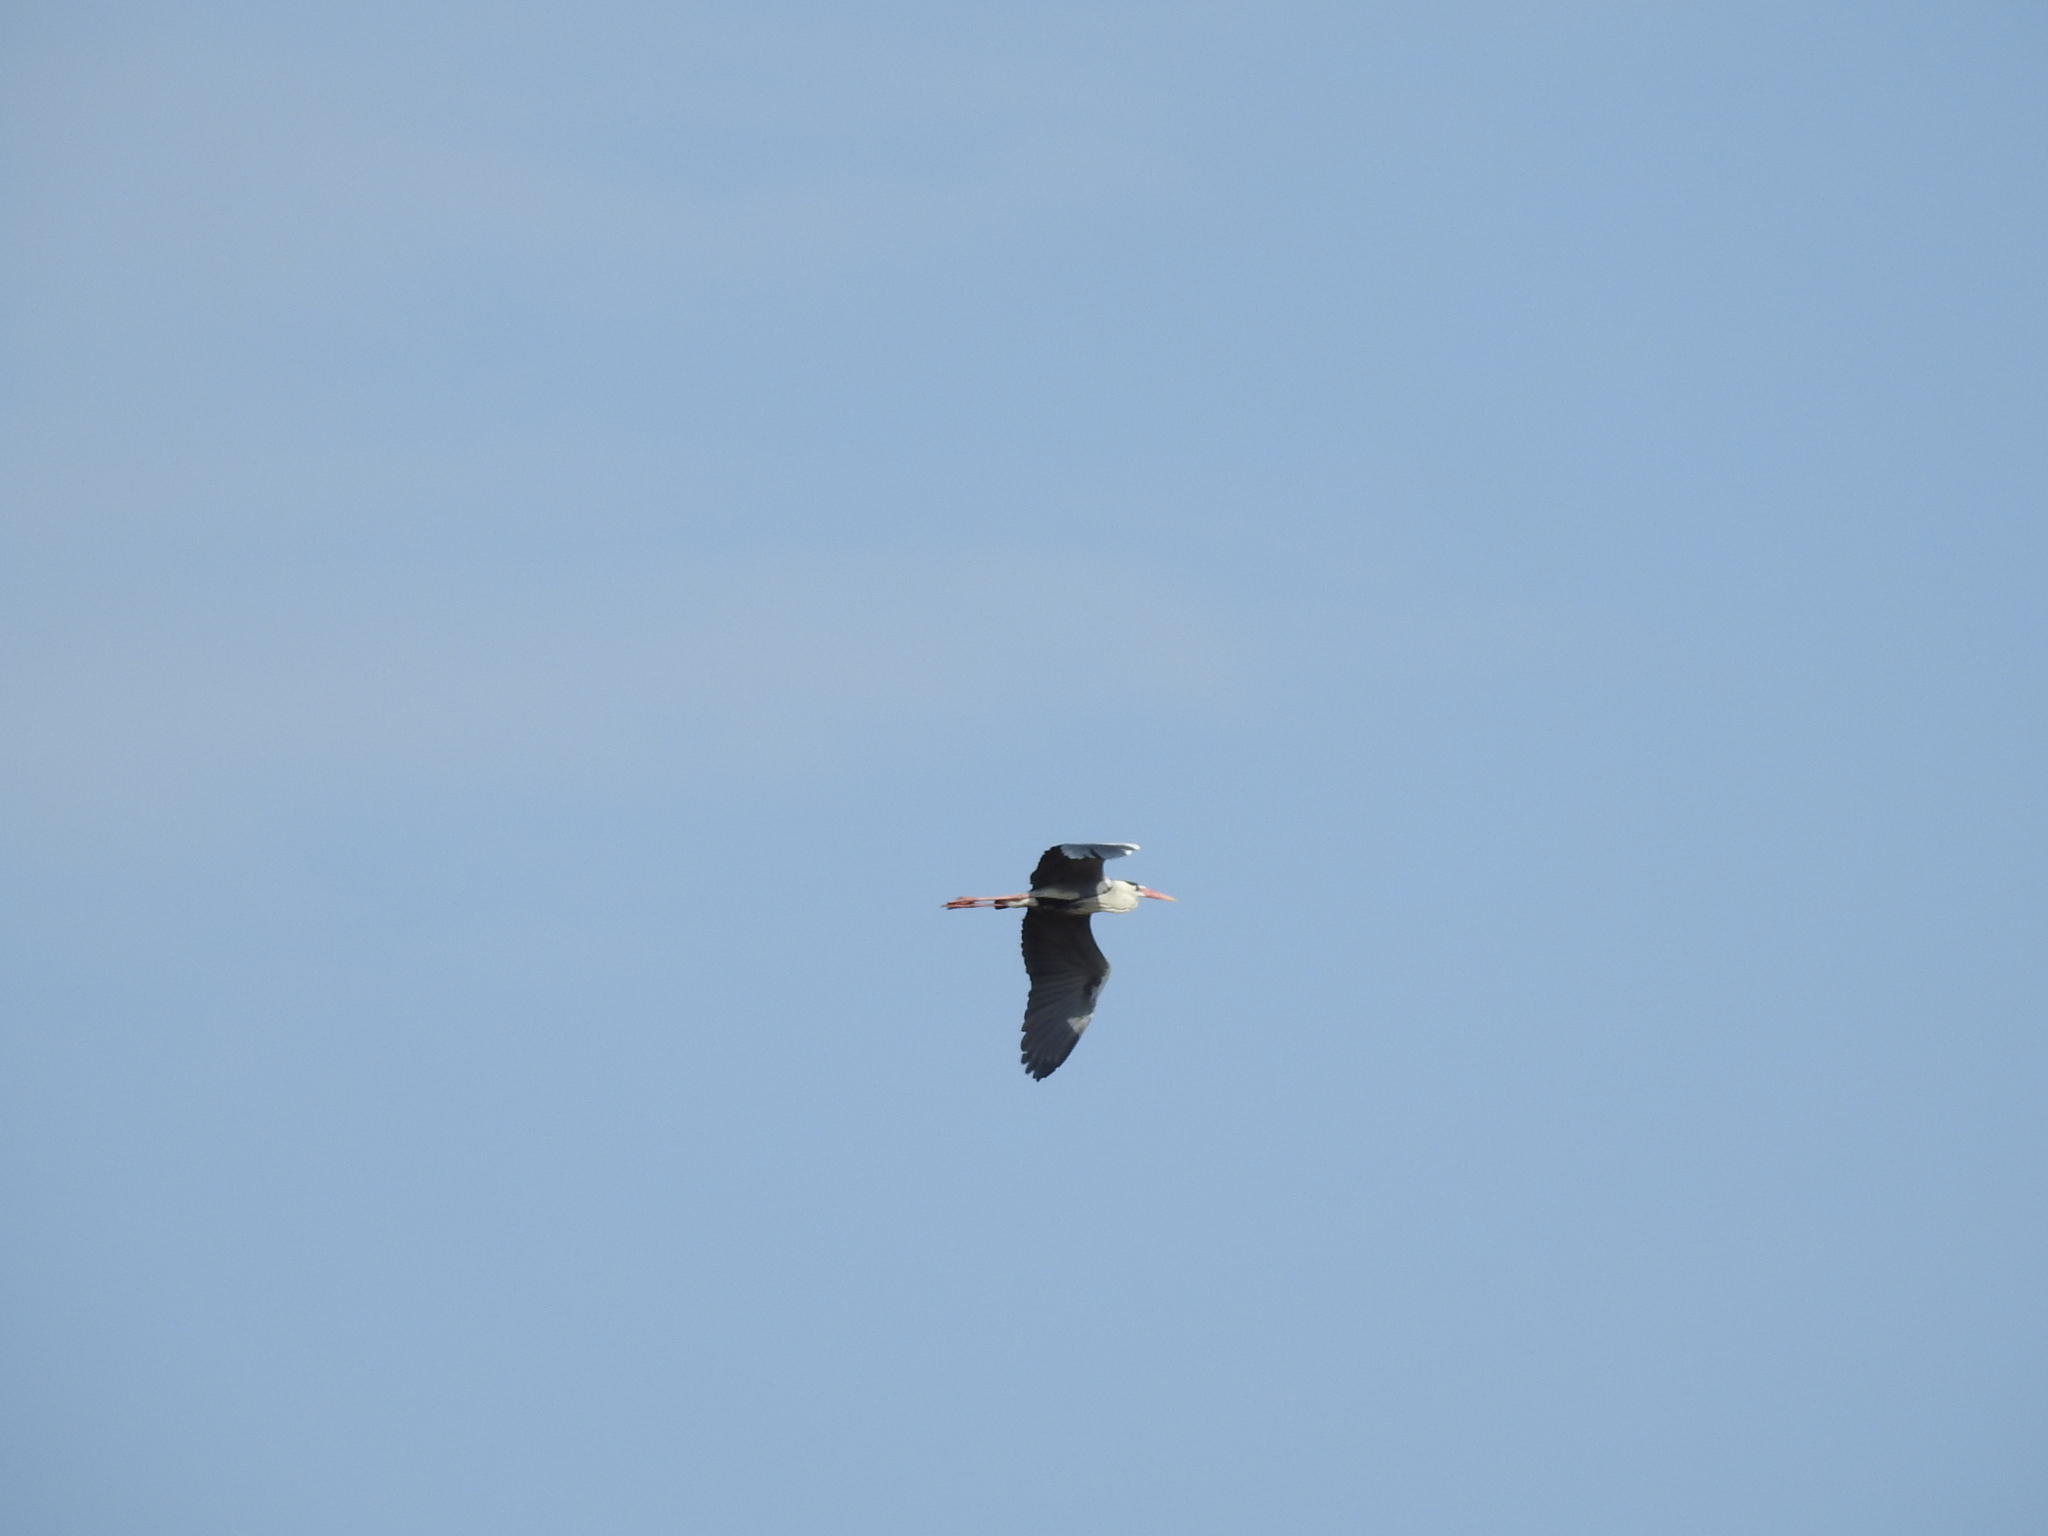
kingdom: Animalia
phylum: Chordata
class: Aves
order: Pelecaniformes
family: Ardeidae
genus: Ardea
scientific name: Ardea cinerea
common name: Grey heron
